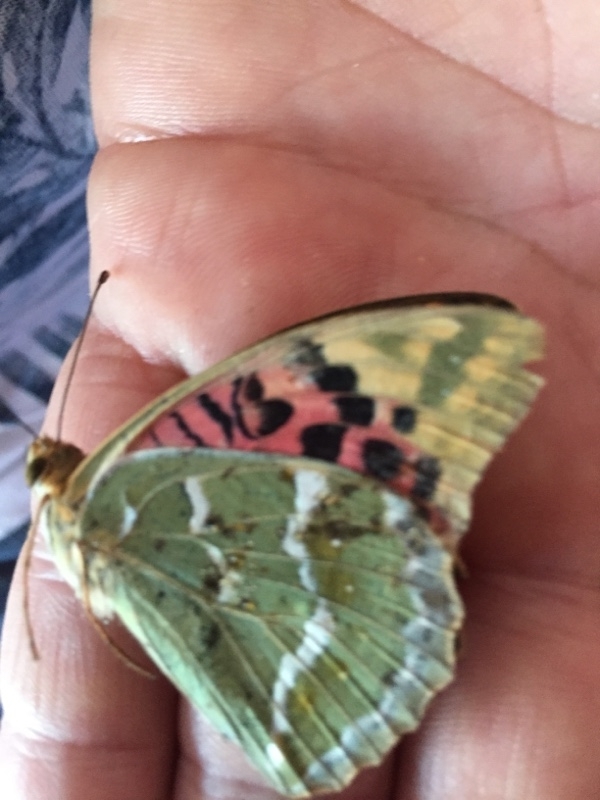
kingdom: Animalia
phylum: Arthropoda
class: Insecta
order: Lepidoptera
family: Nymphalidae
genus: Damora
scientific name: Damora pandora
